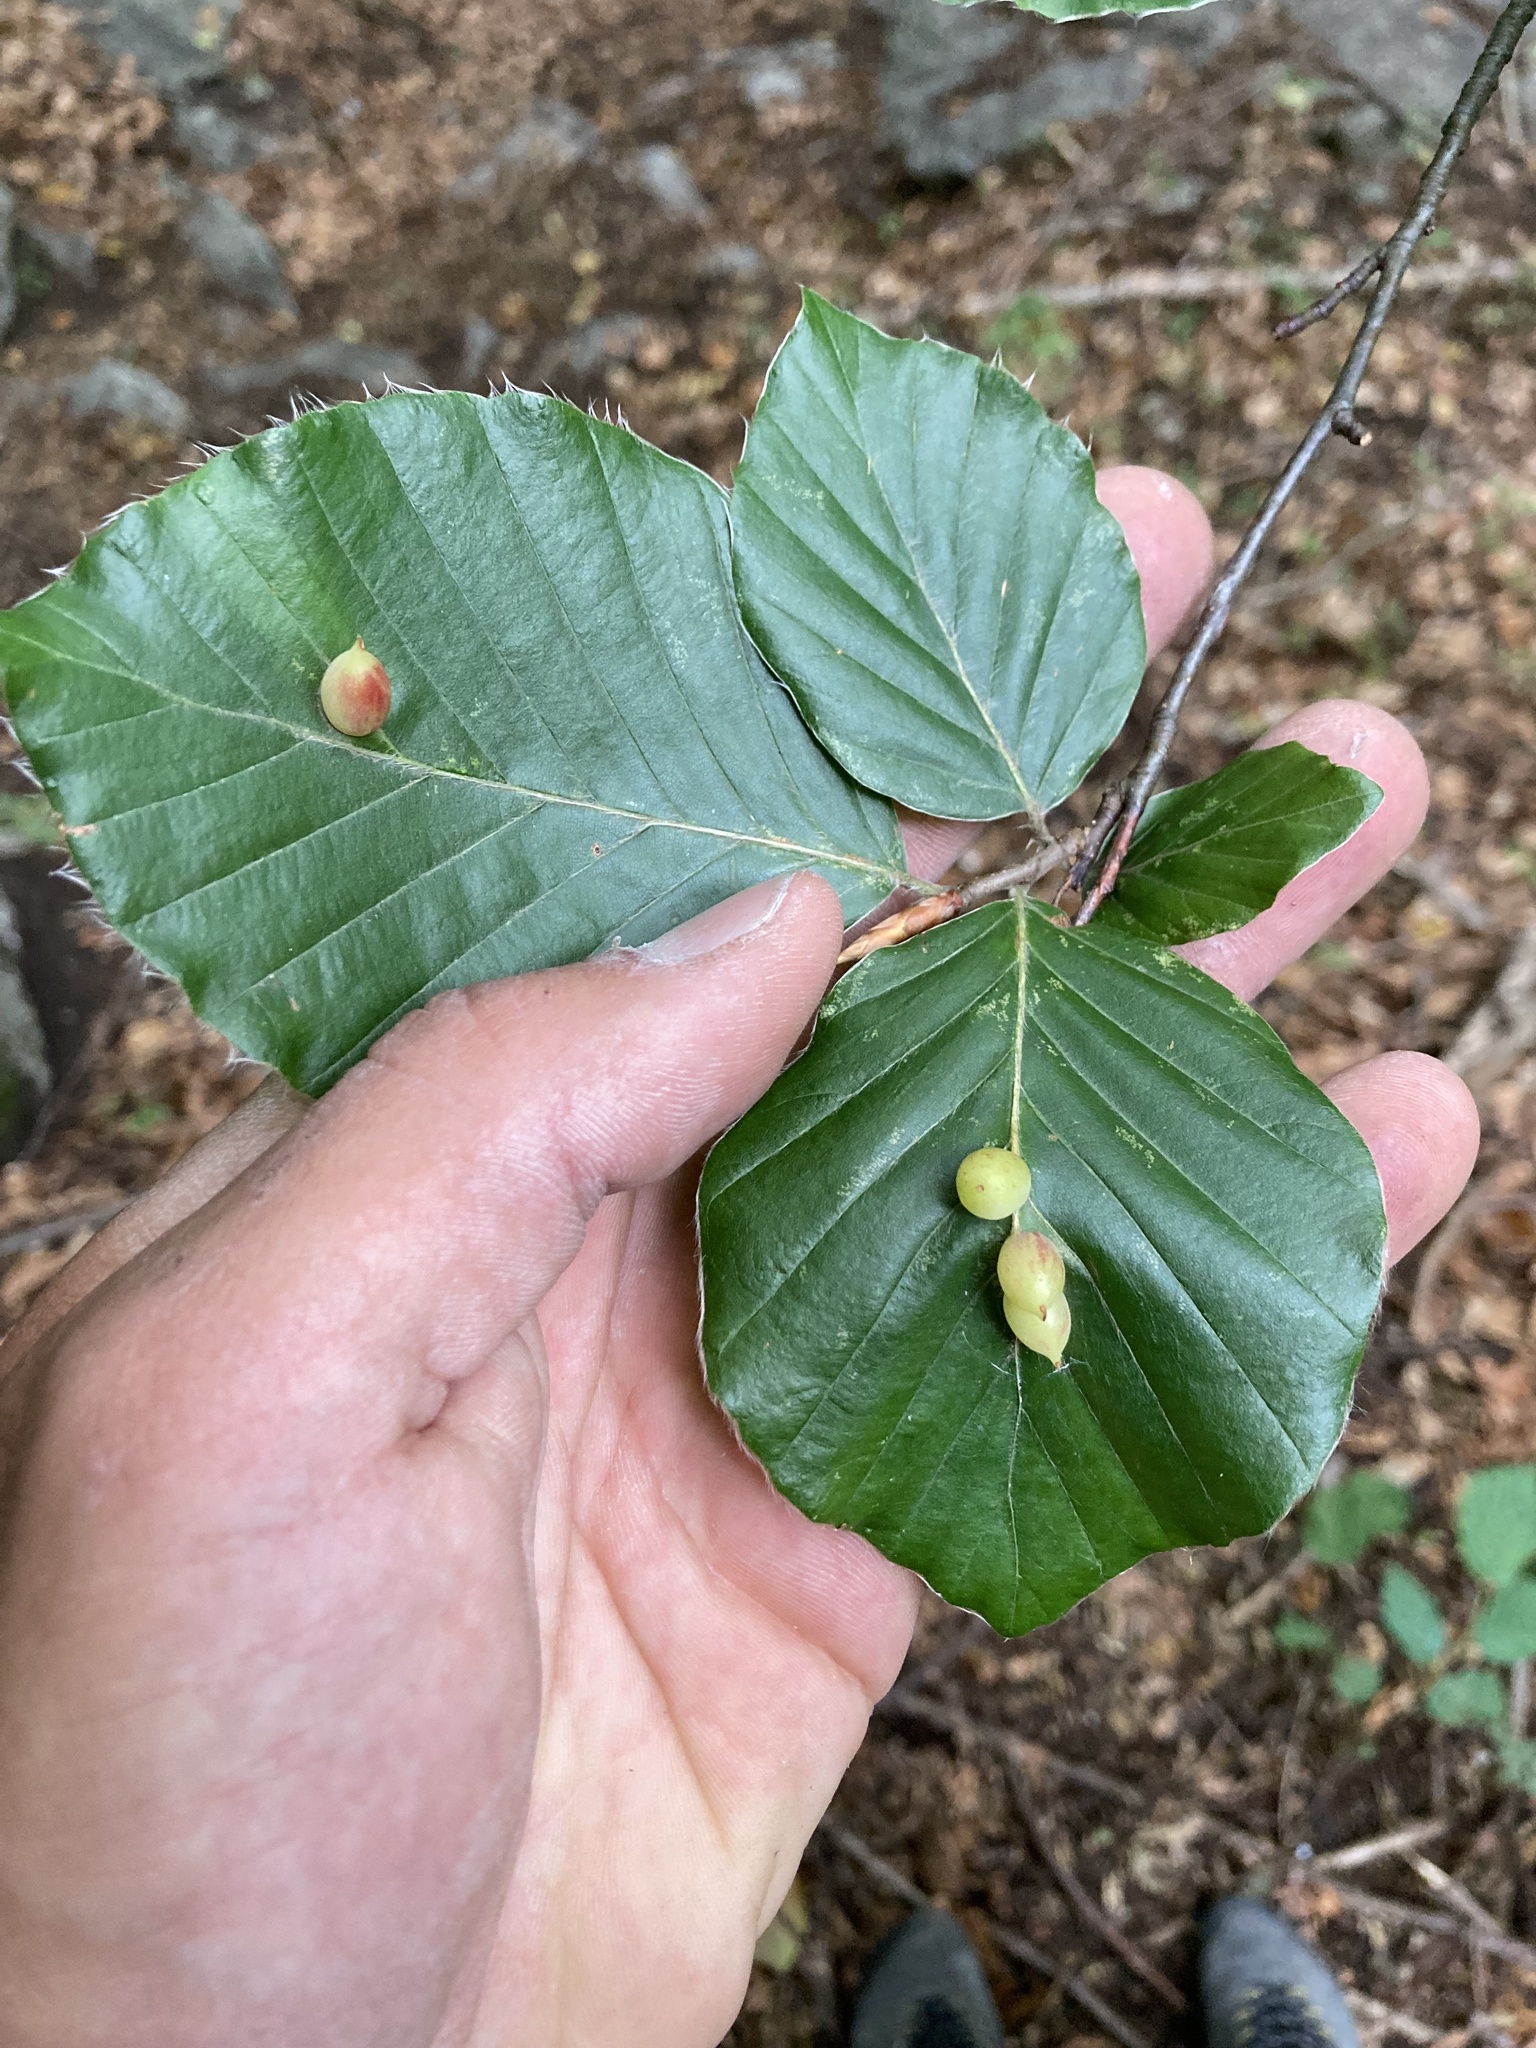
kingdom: Animalia
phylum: Arthropoda
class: Insecta
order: Diptera
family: Cecidomyiidae
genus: Mikiola
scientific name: Mikiola fagi
